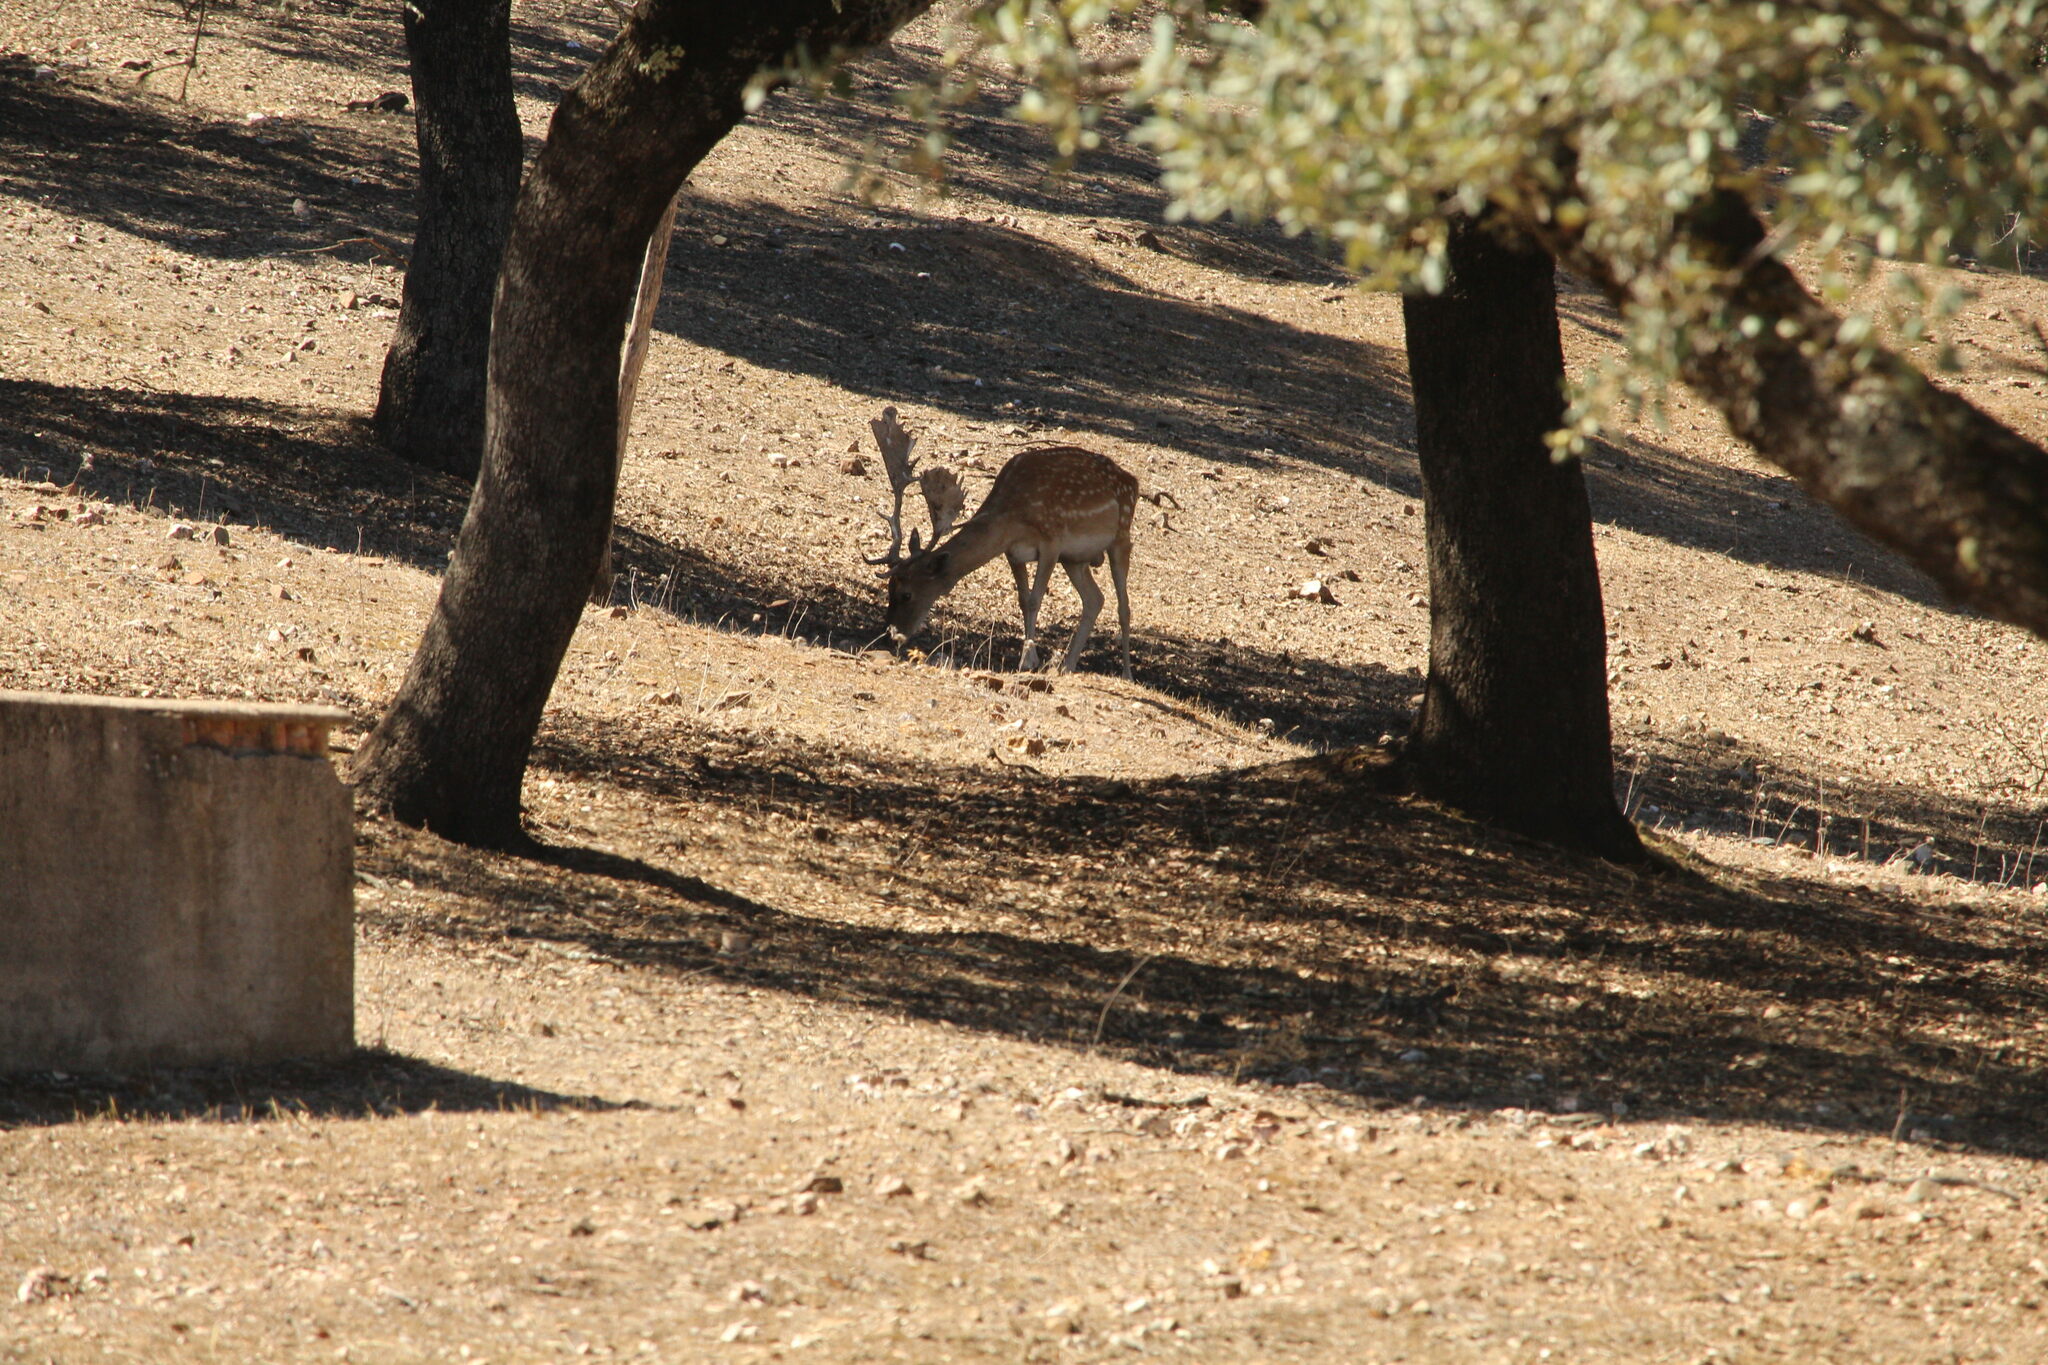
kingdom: Animalia
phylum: Chordata
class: Mammalia
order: Artiodactyla
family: Cervidae
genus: Dama
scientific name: Dama dama
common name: Fallow deer
